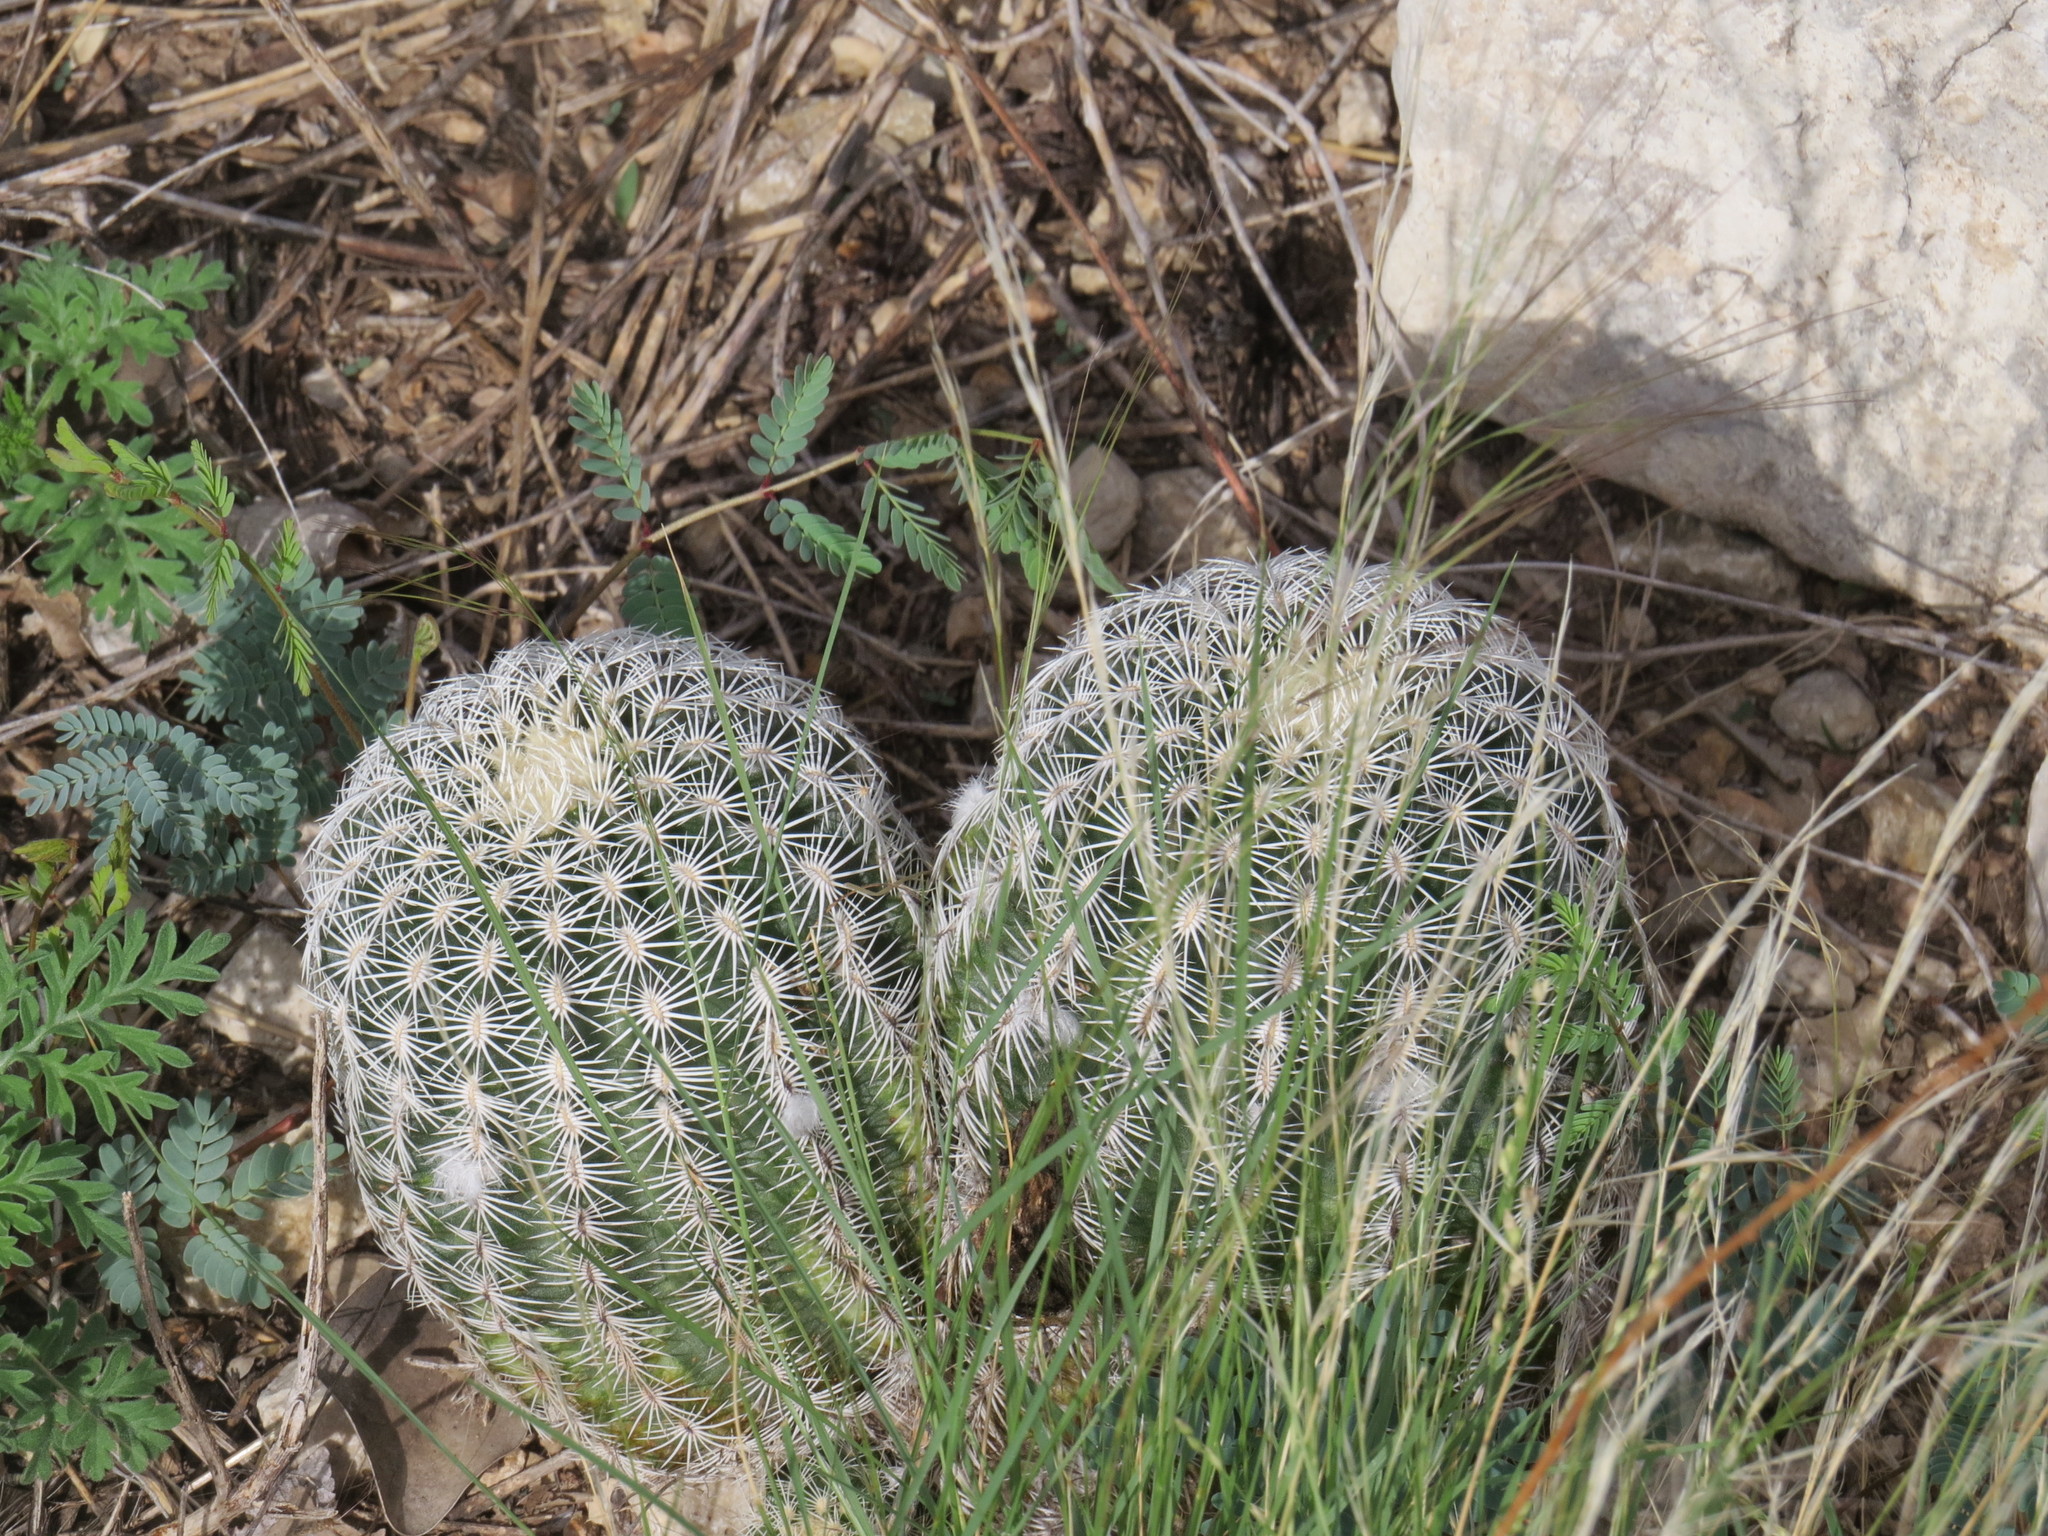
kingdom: Plantae
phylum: Tracheophyta
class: Magnoliopsida
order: Caryophyllales
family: Cactaceae
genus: Echinocereus
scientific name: Echinocereus reichenbachii
